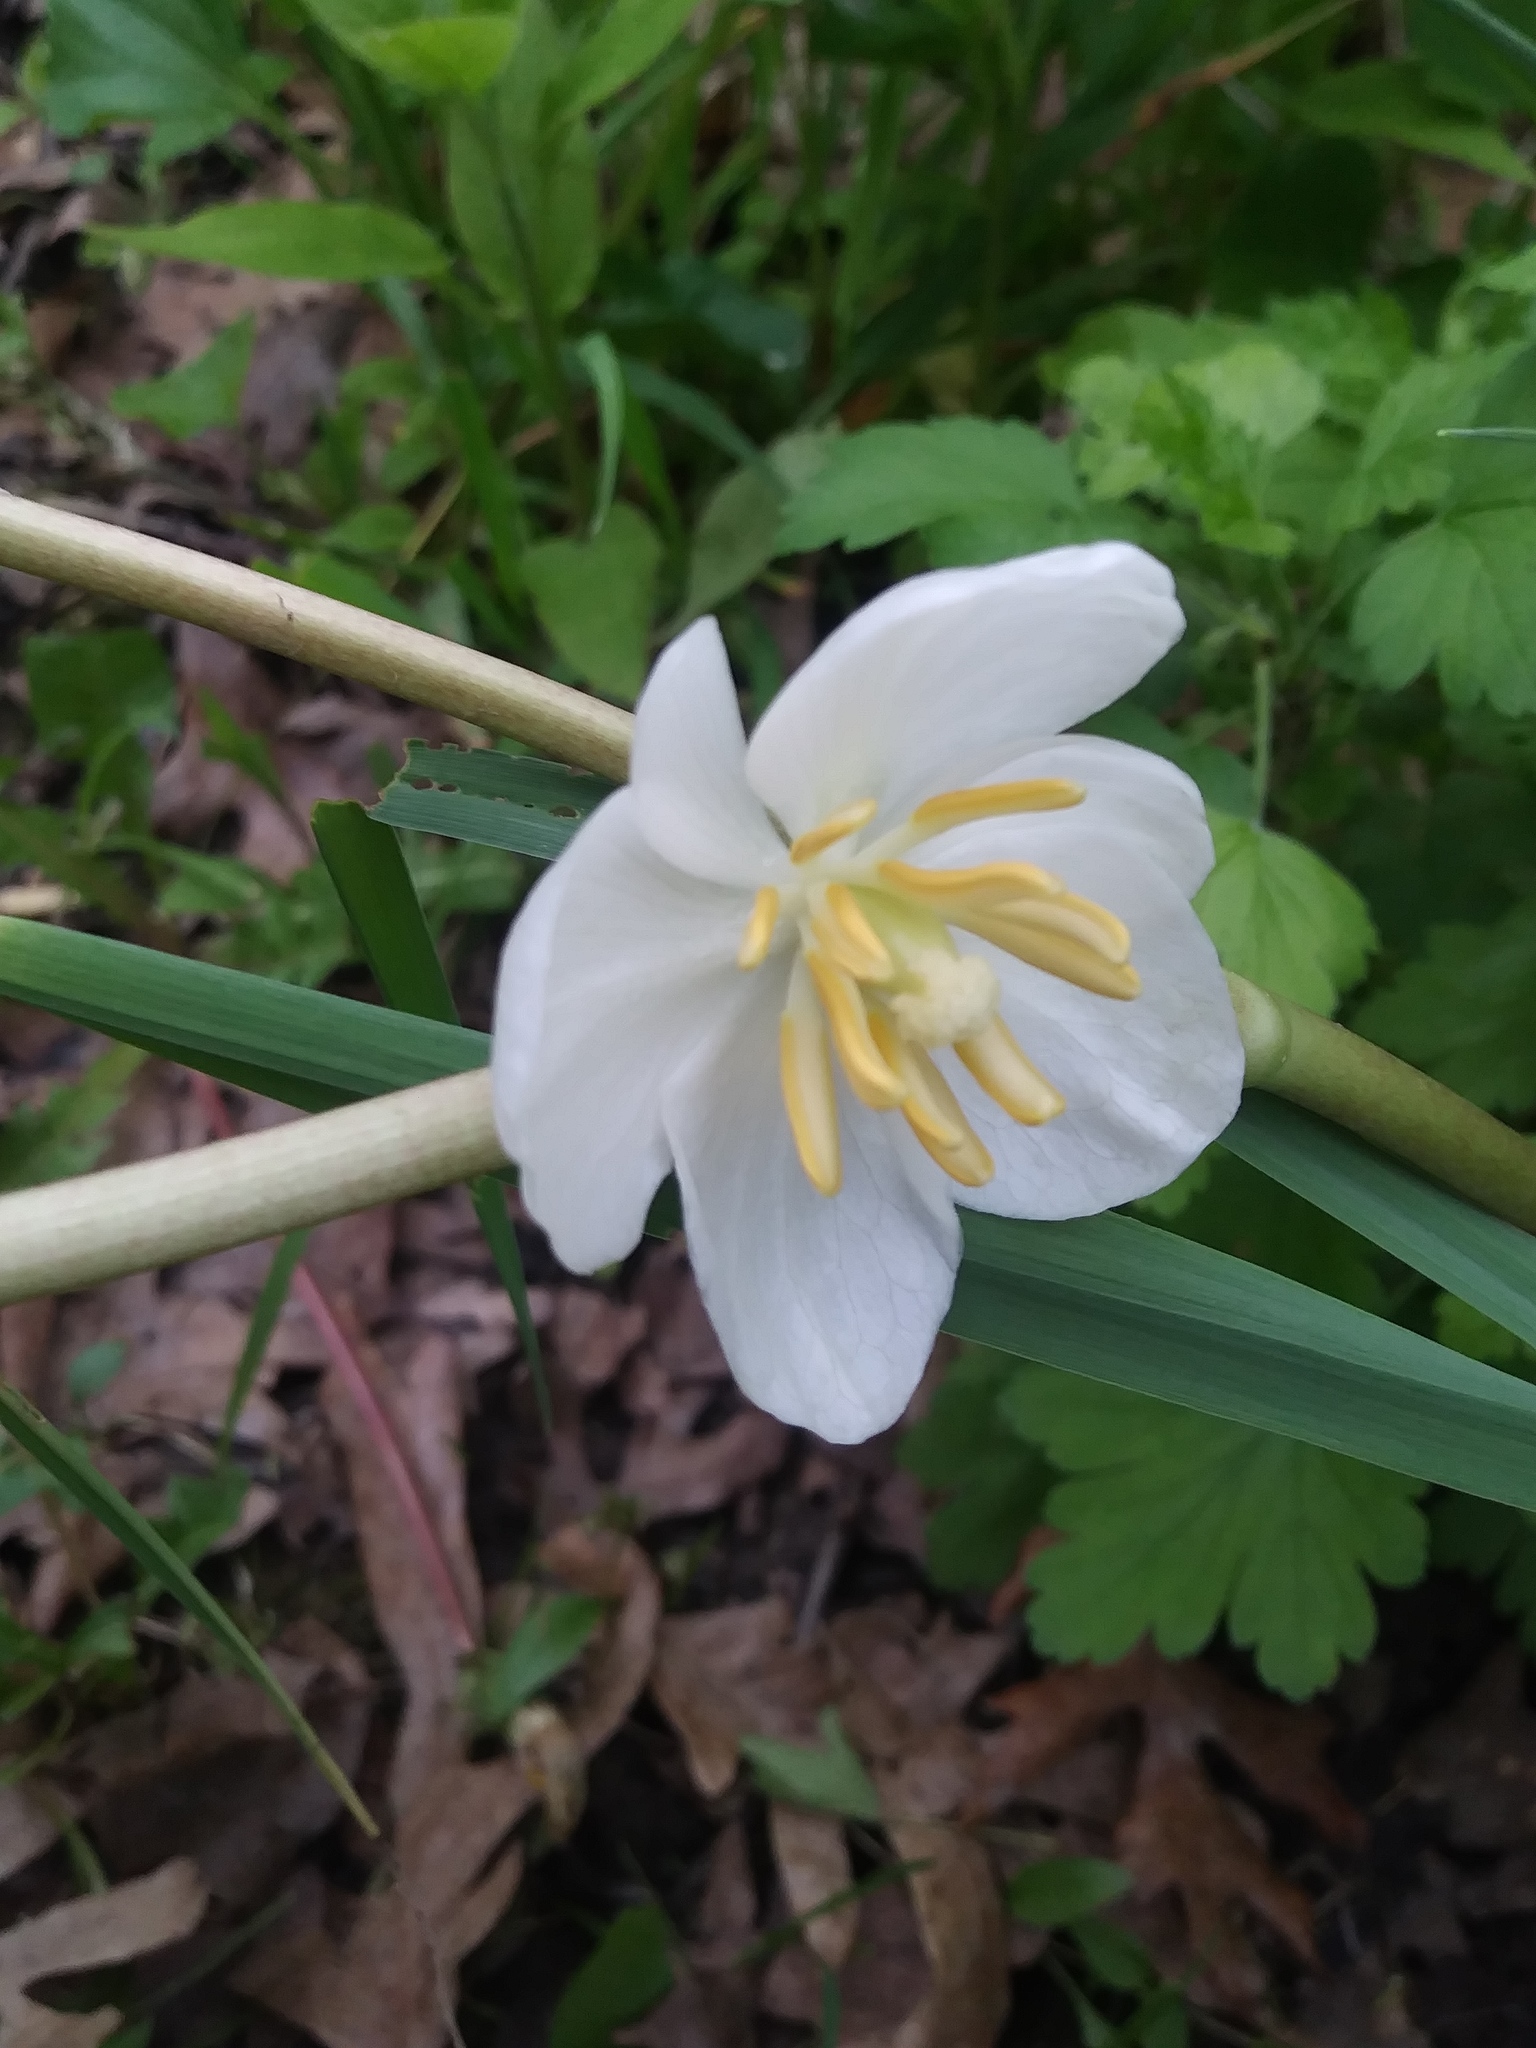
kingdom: Plantae
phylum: Tracheophyta
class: Magnoliopsida
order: Ranunculales
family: Berberidaceae
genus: Podophyllum
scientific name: Podophyllum peltatum
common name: Wild mandrake
